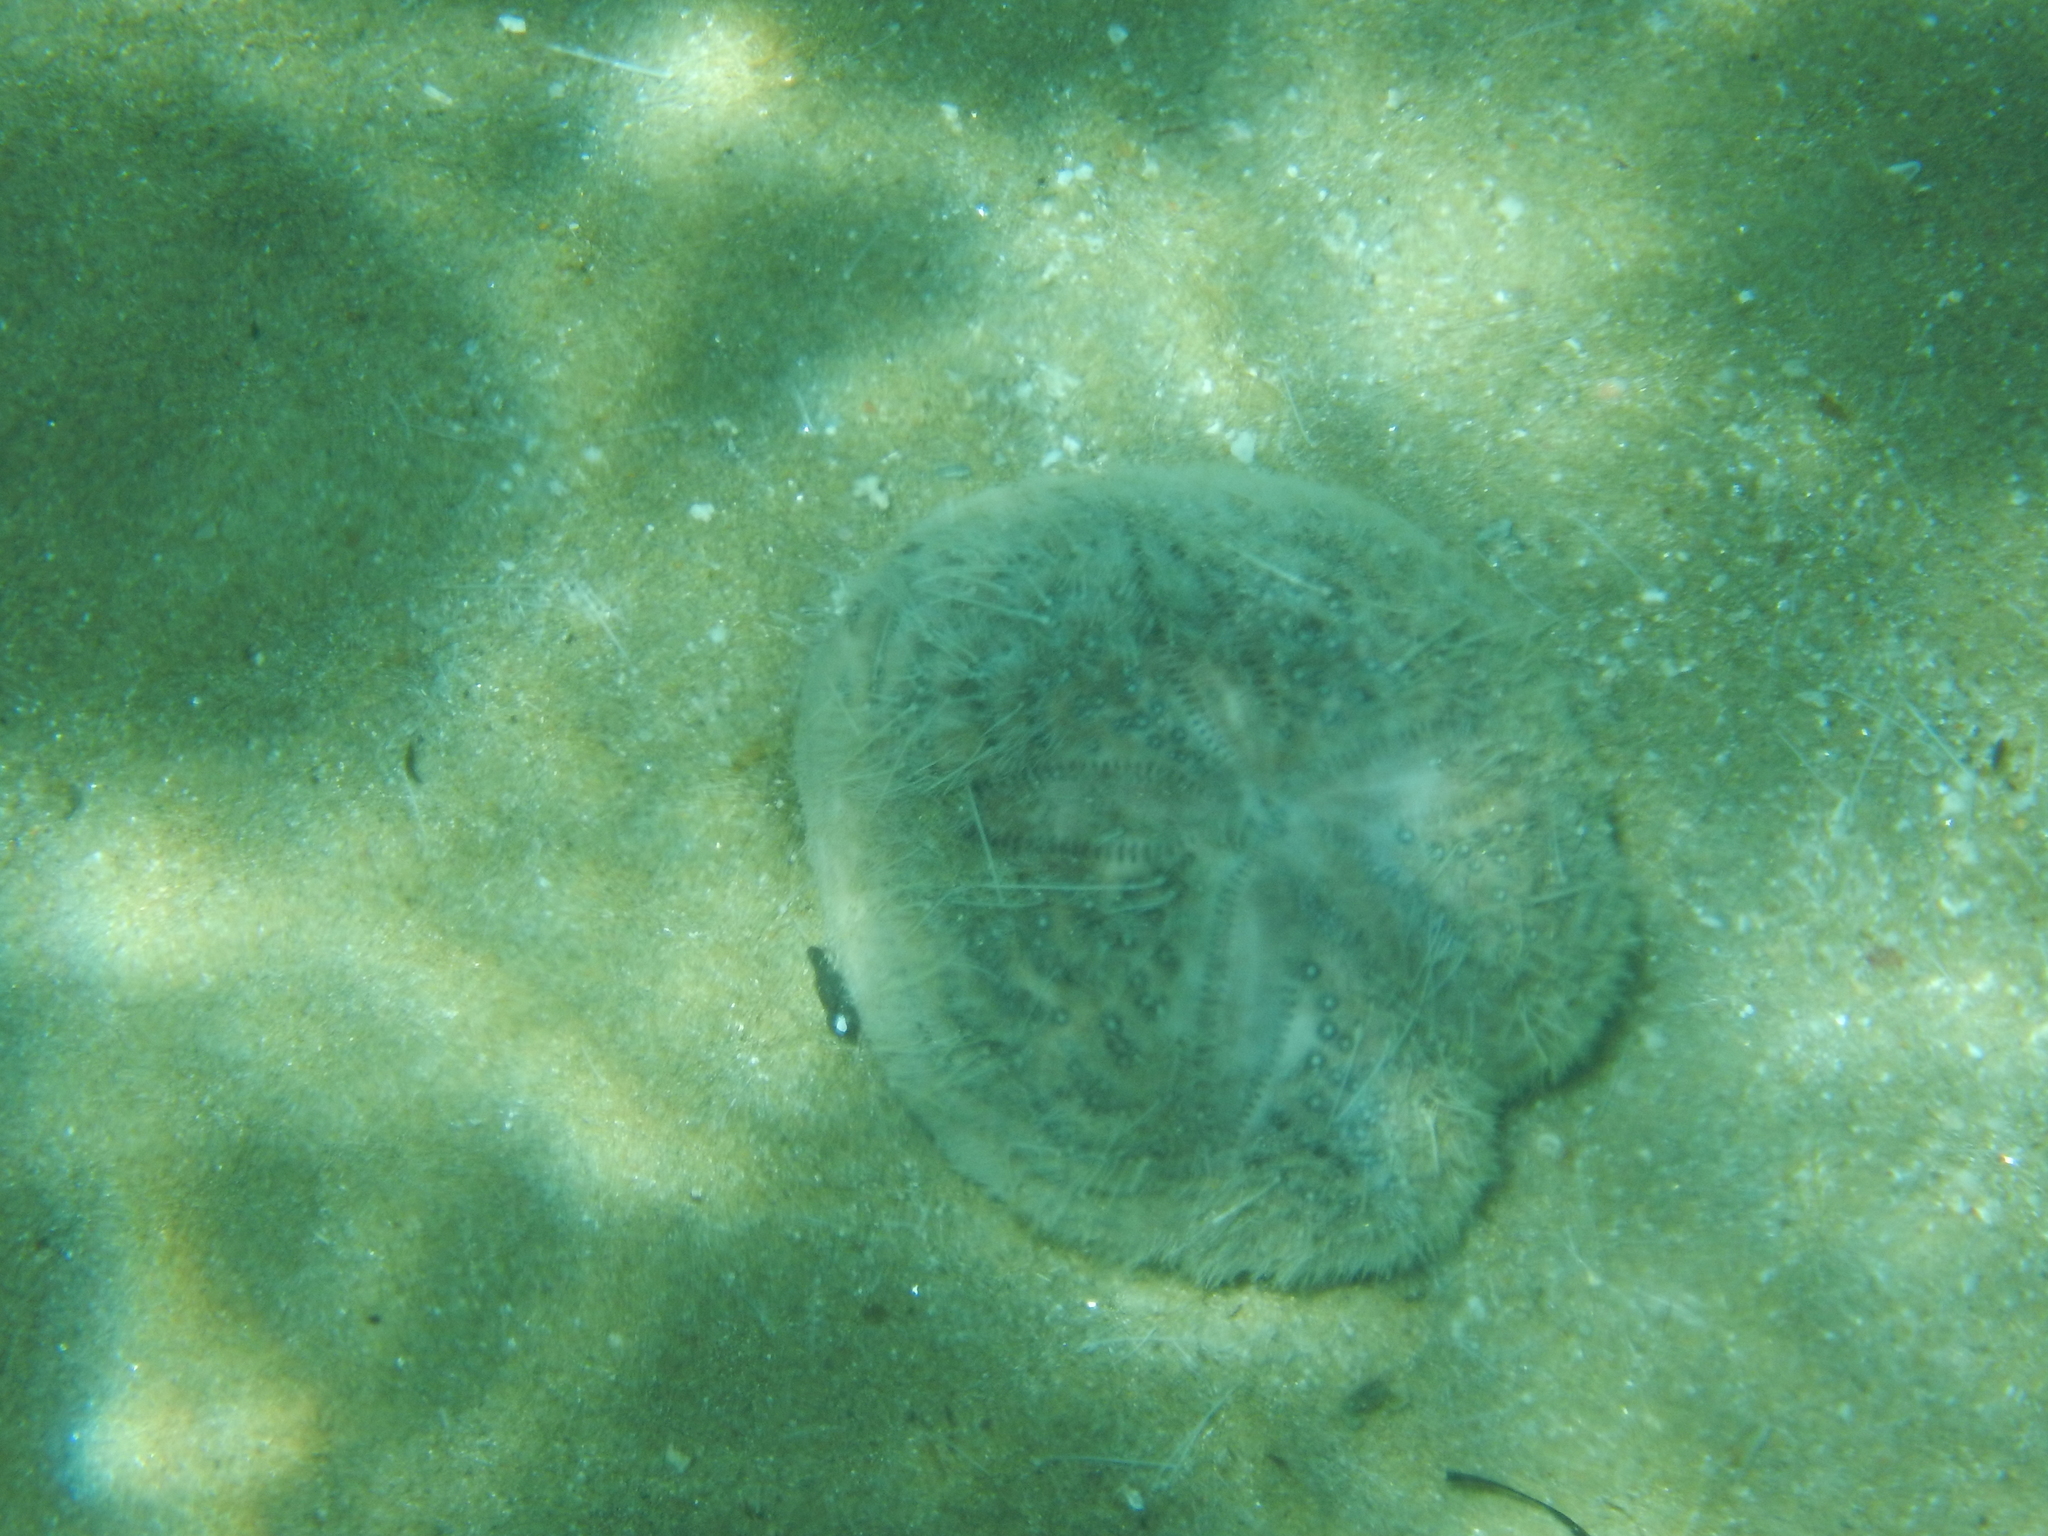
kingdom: Animalia
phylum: Echinodermata
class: Echinoidea
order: Spatangoida
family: Spatangidae
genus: Spatangus
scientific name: Spatangus purpureus
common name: Purple heart urchin
